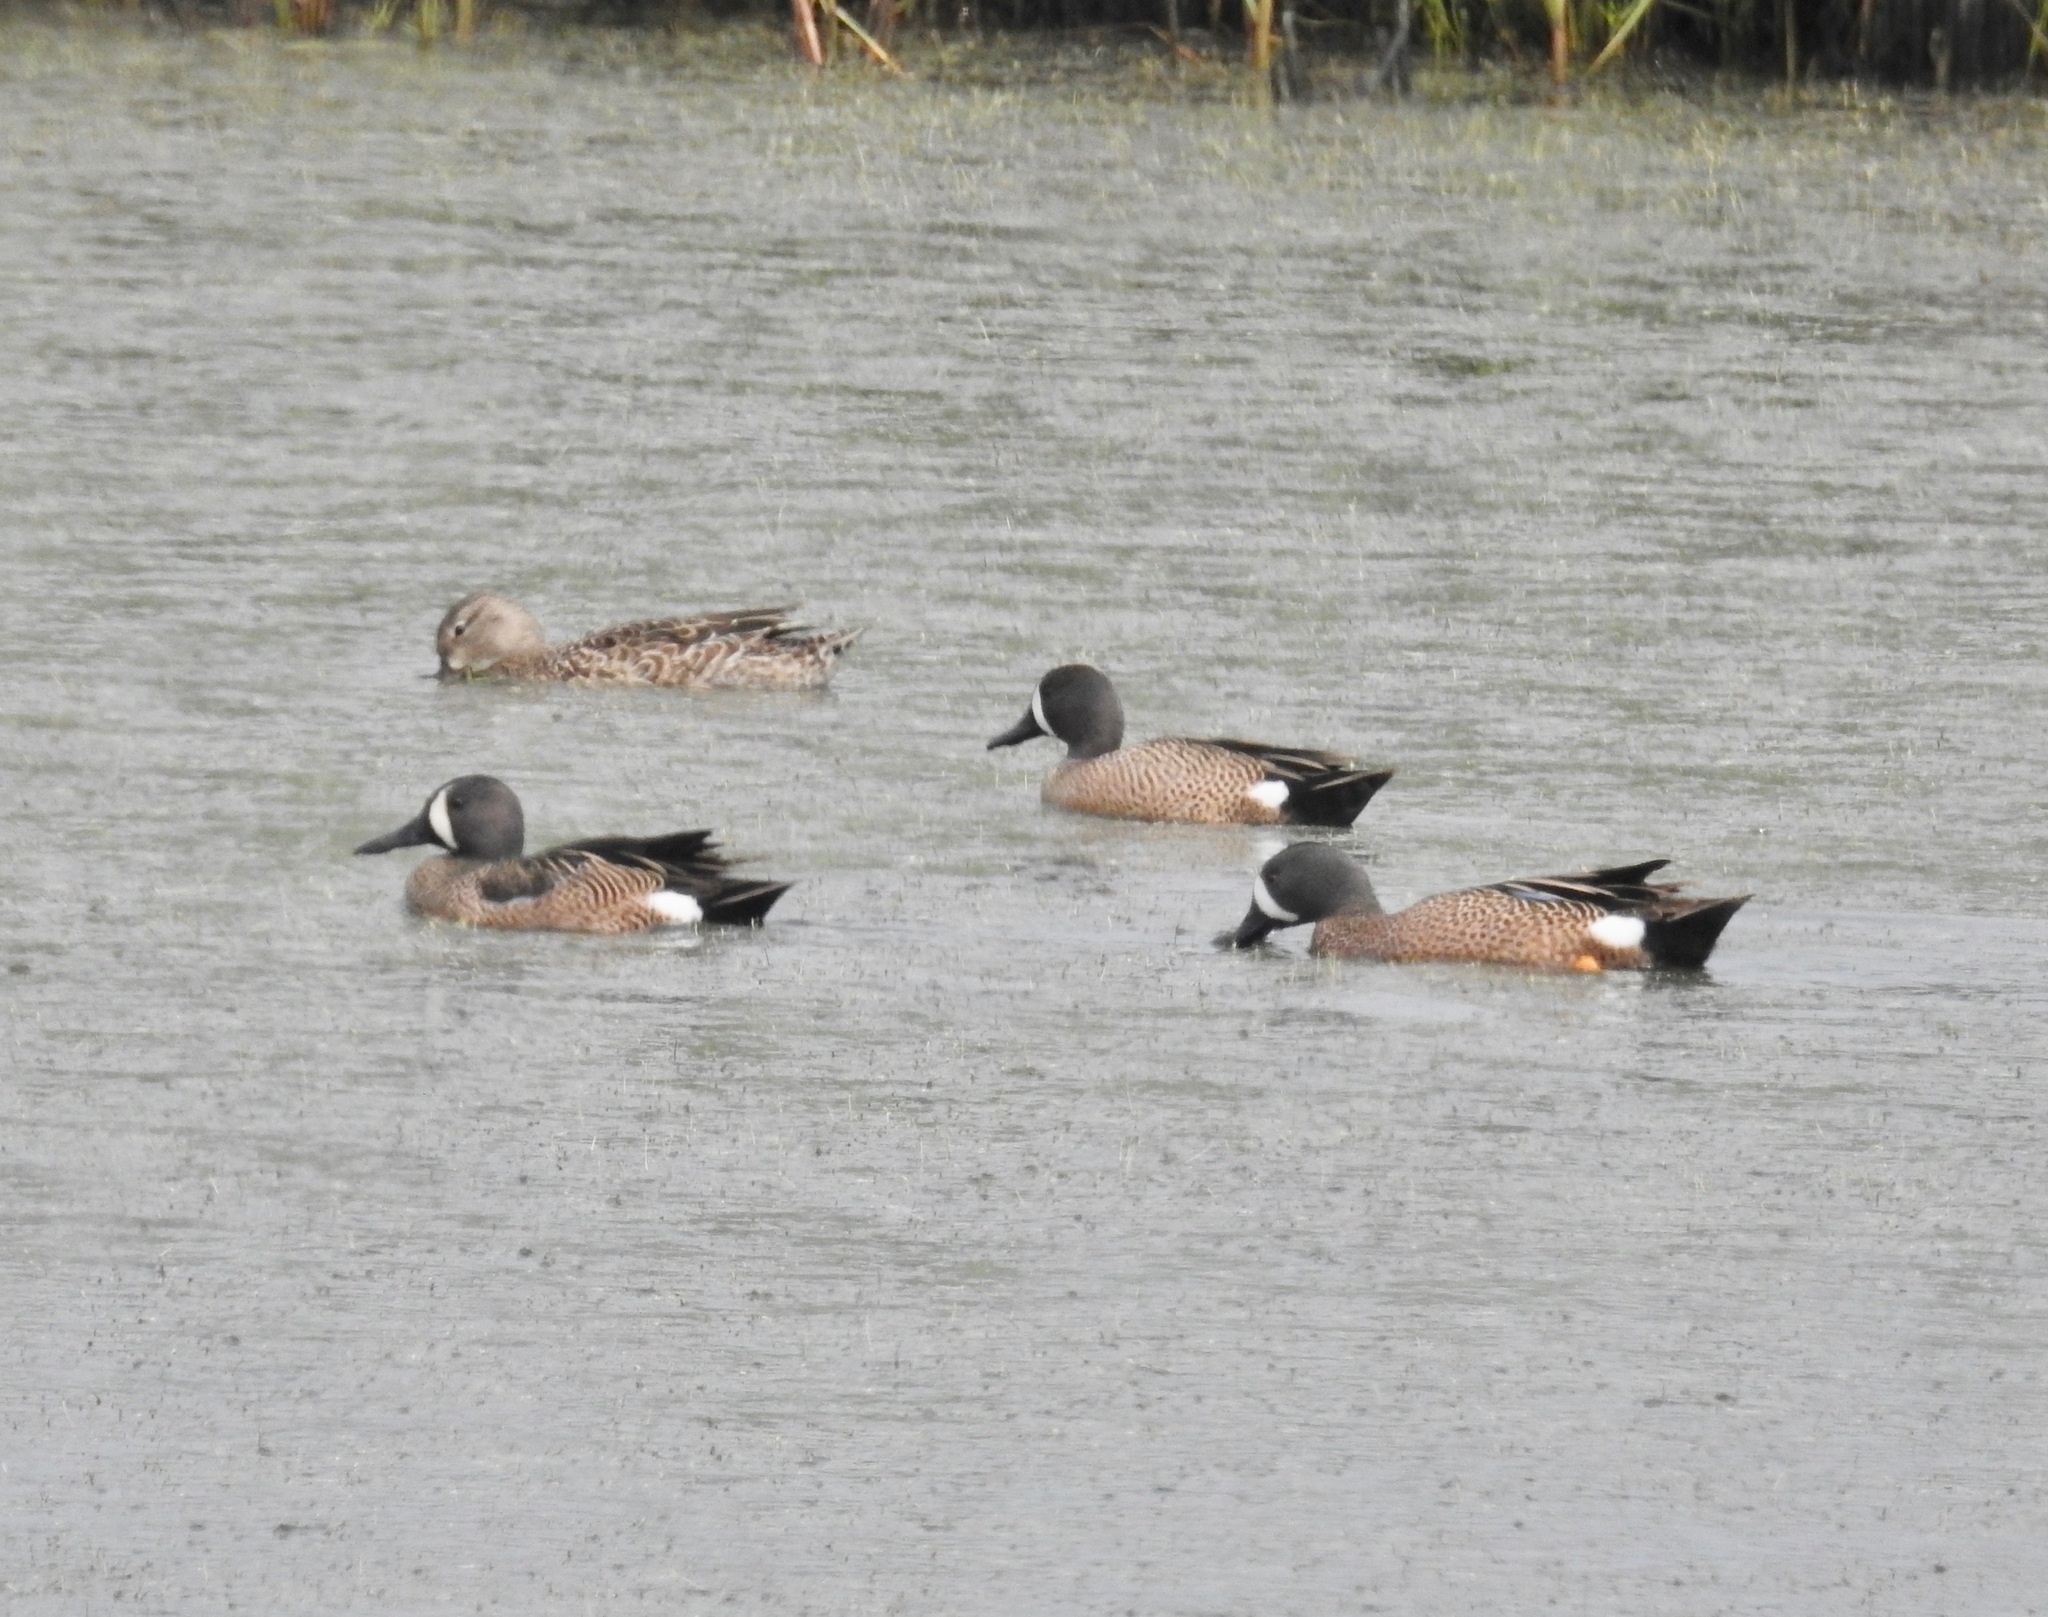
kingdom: Animalia
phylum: Chordata
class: Aves
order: Anseriformes
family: Anatidae
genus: Spatula
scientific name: Spatula discors
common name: Blue-winged teal
